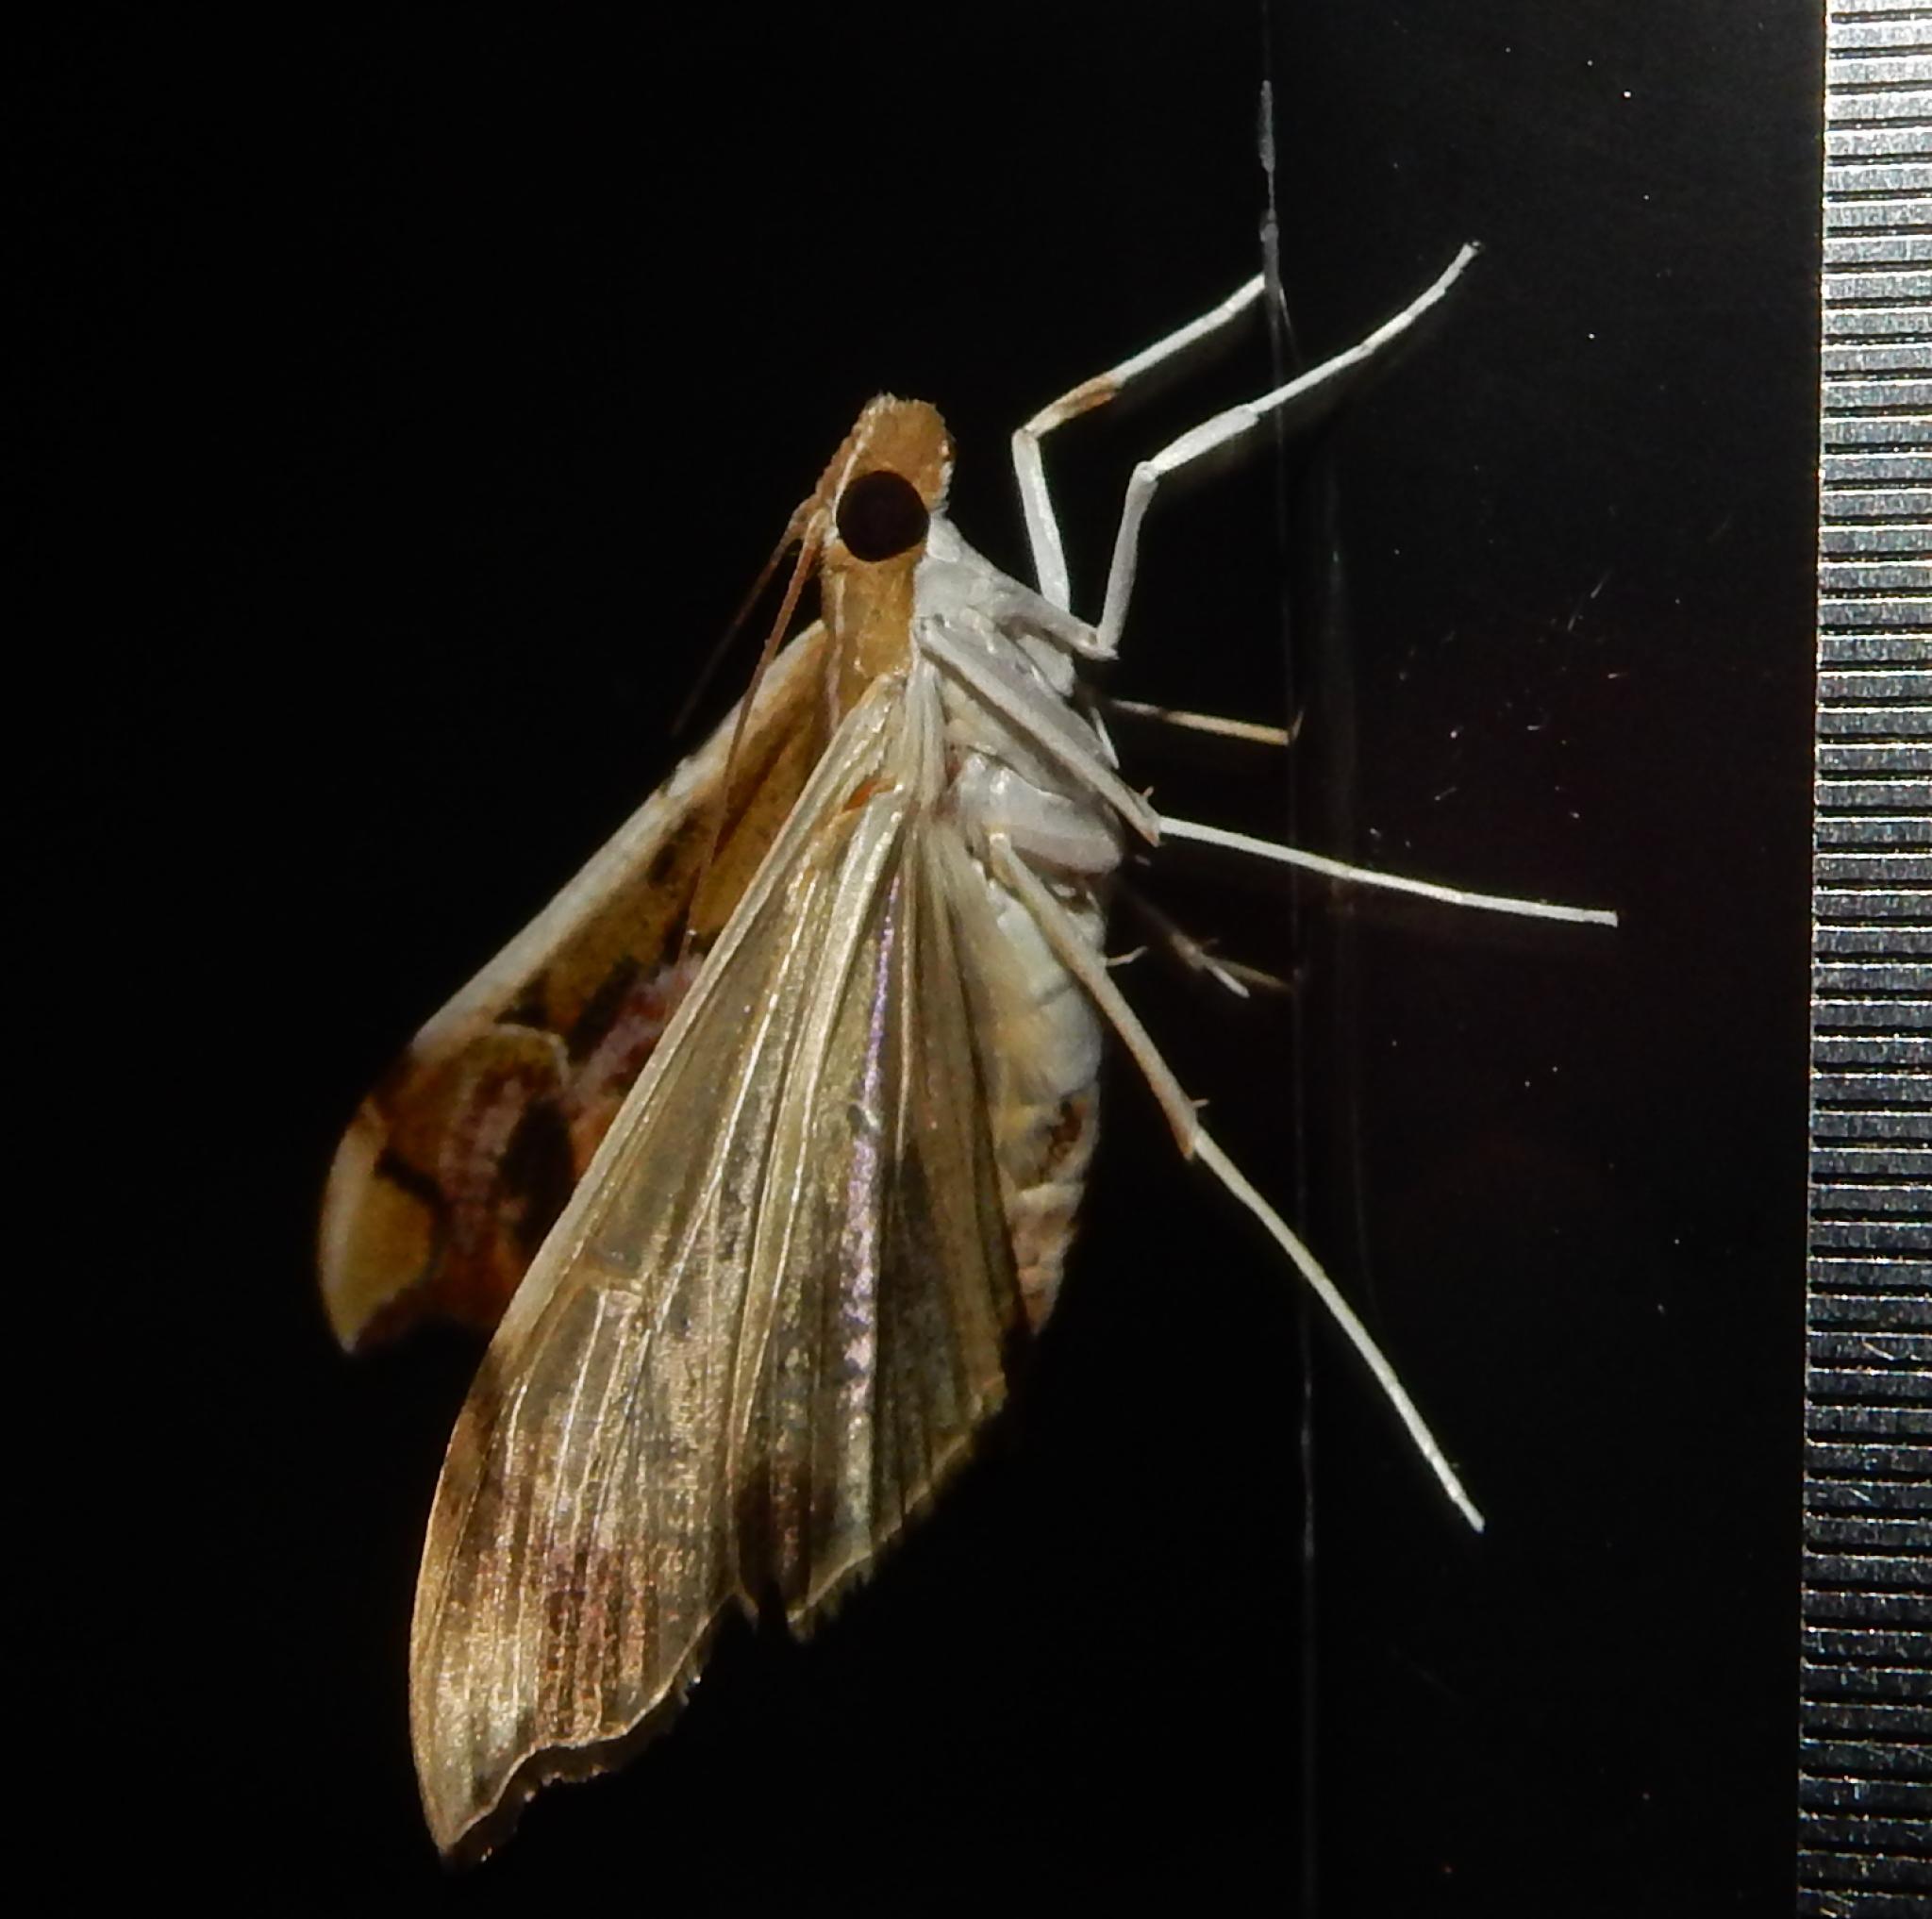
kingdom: Animalia
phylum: Arthropoda
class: Insecta
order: Lepidoptera
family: Crambidae
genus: Agathodes
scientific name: Agathodes musivalis
